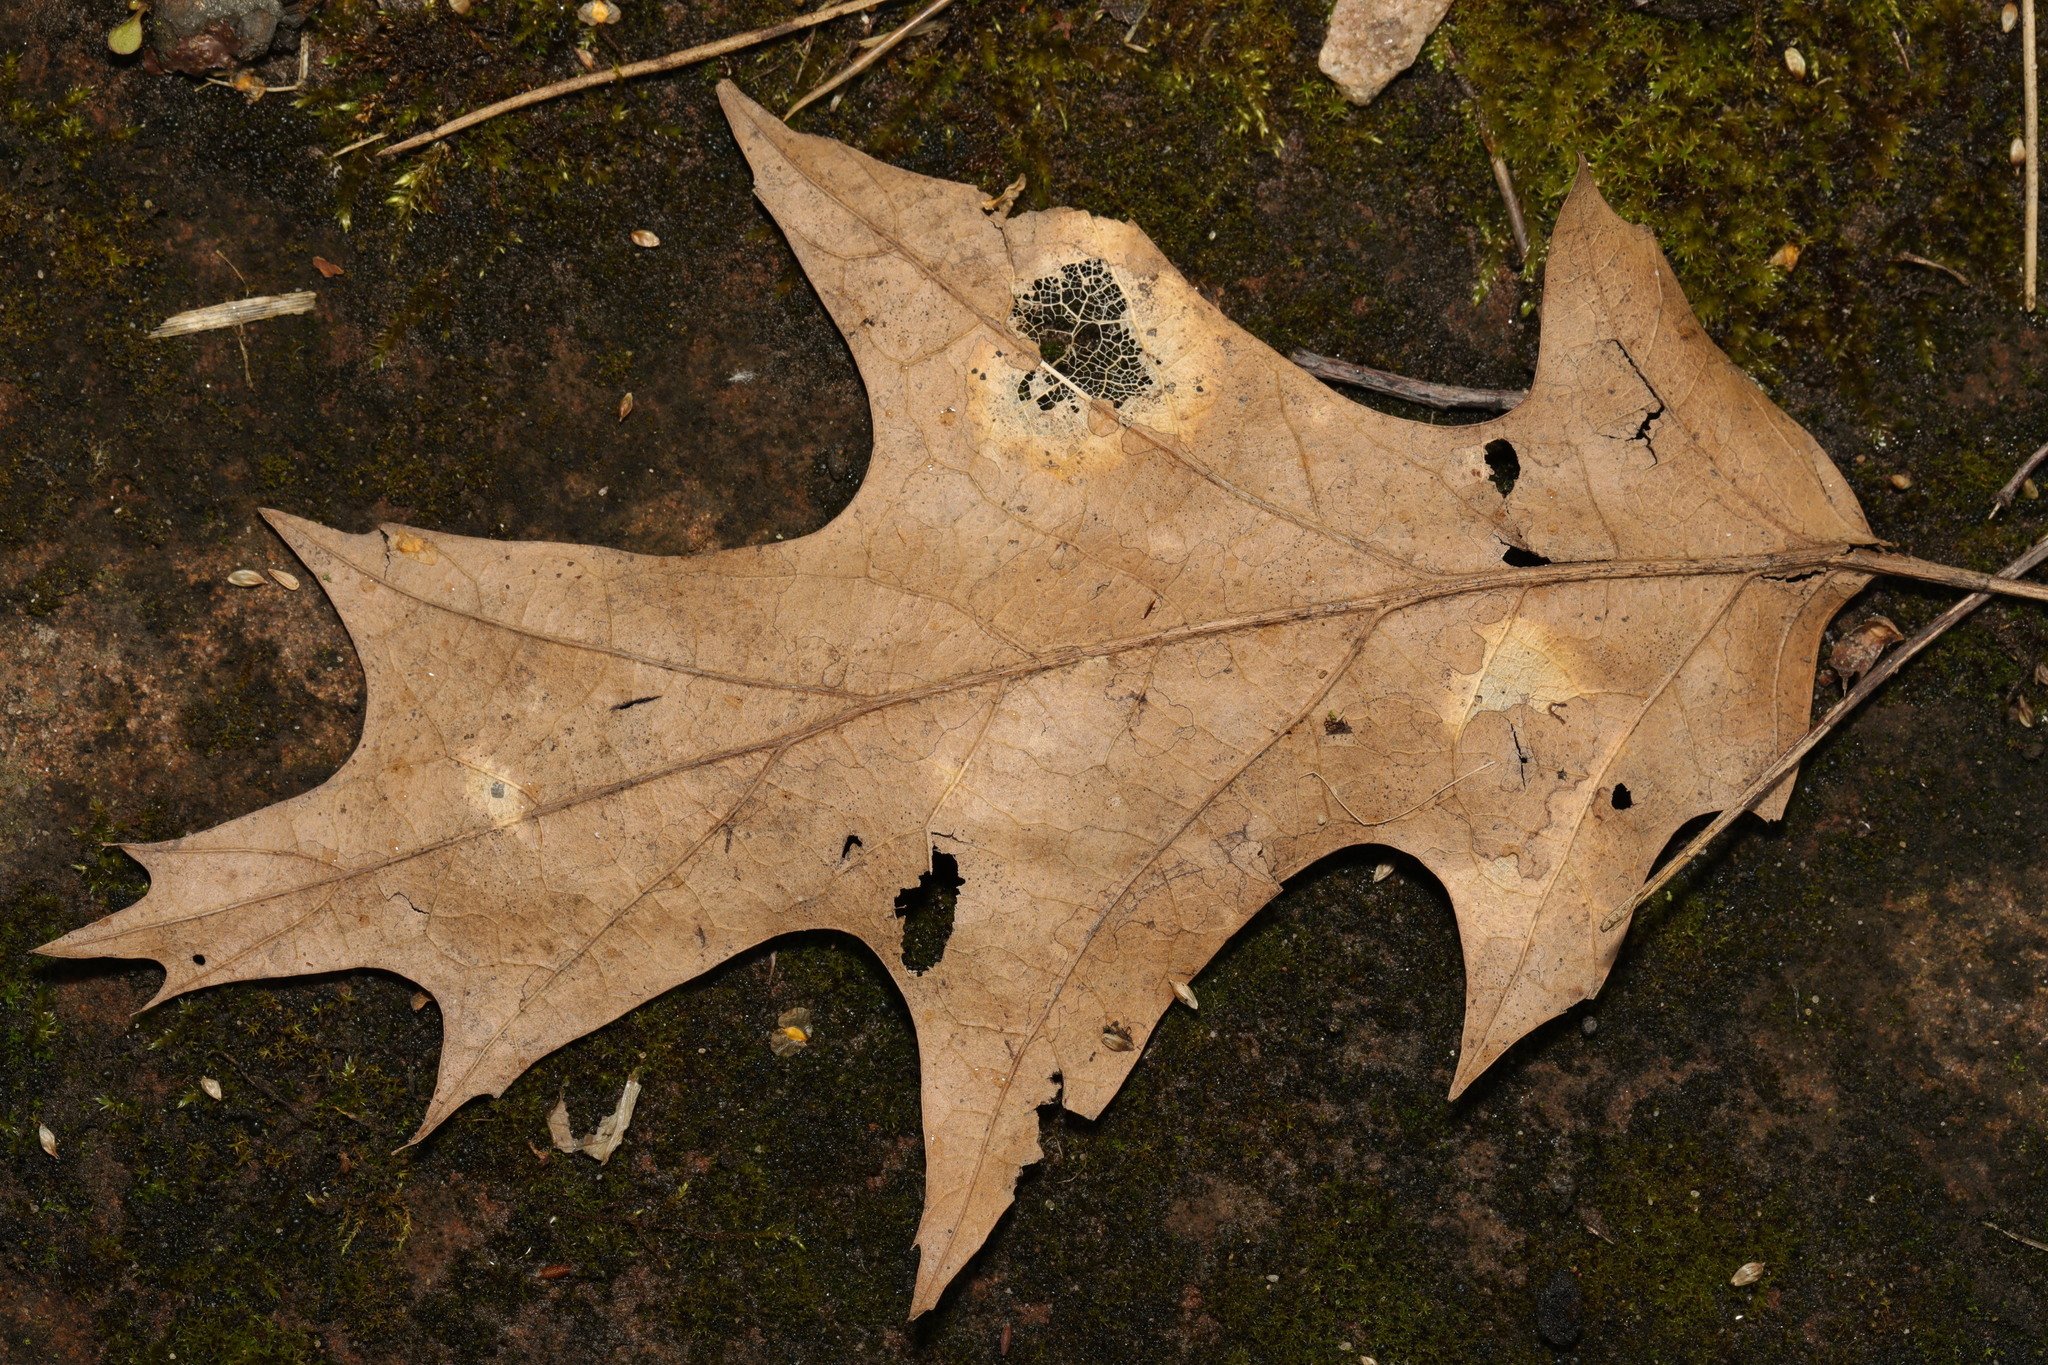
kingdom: Plantae
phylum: Tracheophyta
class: Magnoliopsida
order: Fagales
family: Fagaceae
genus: Quercus
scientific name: Quercus rubra
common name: Red oak
